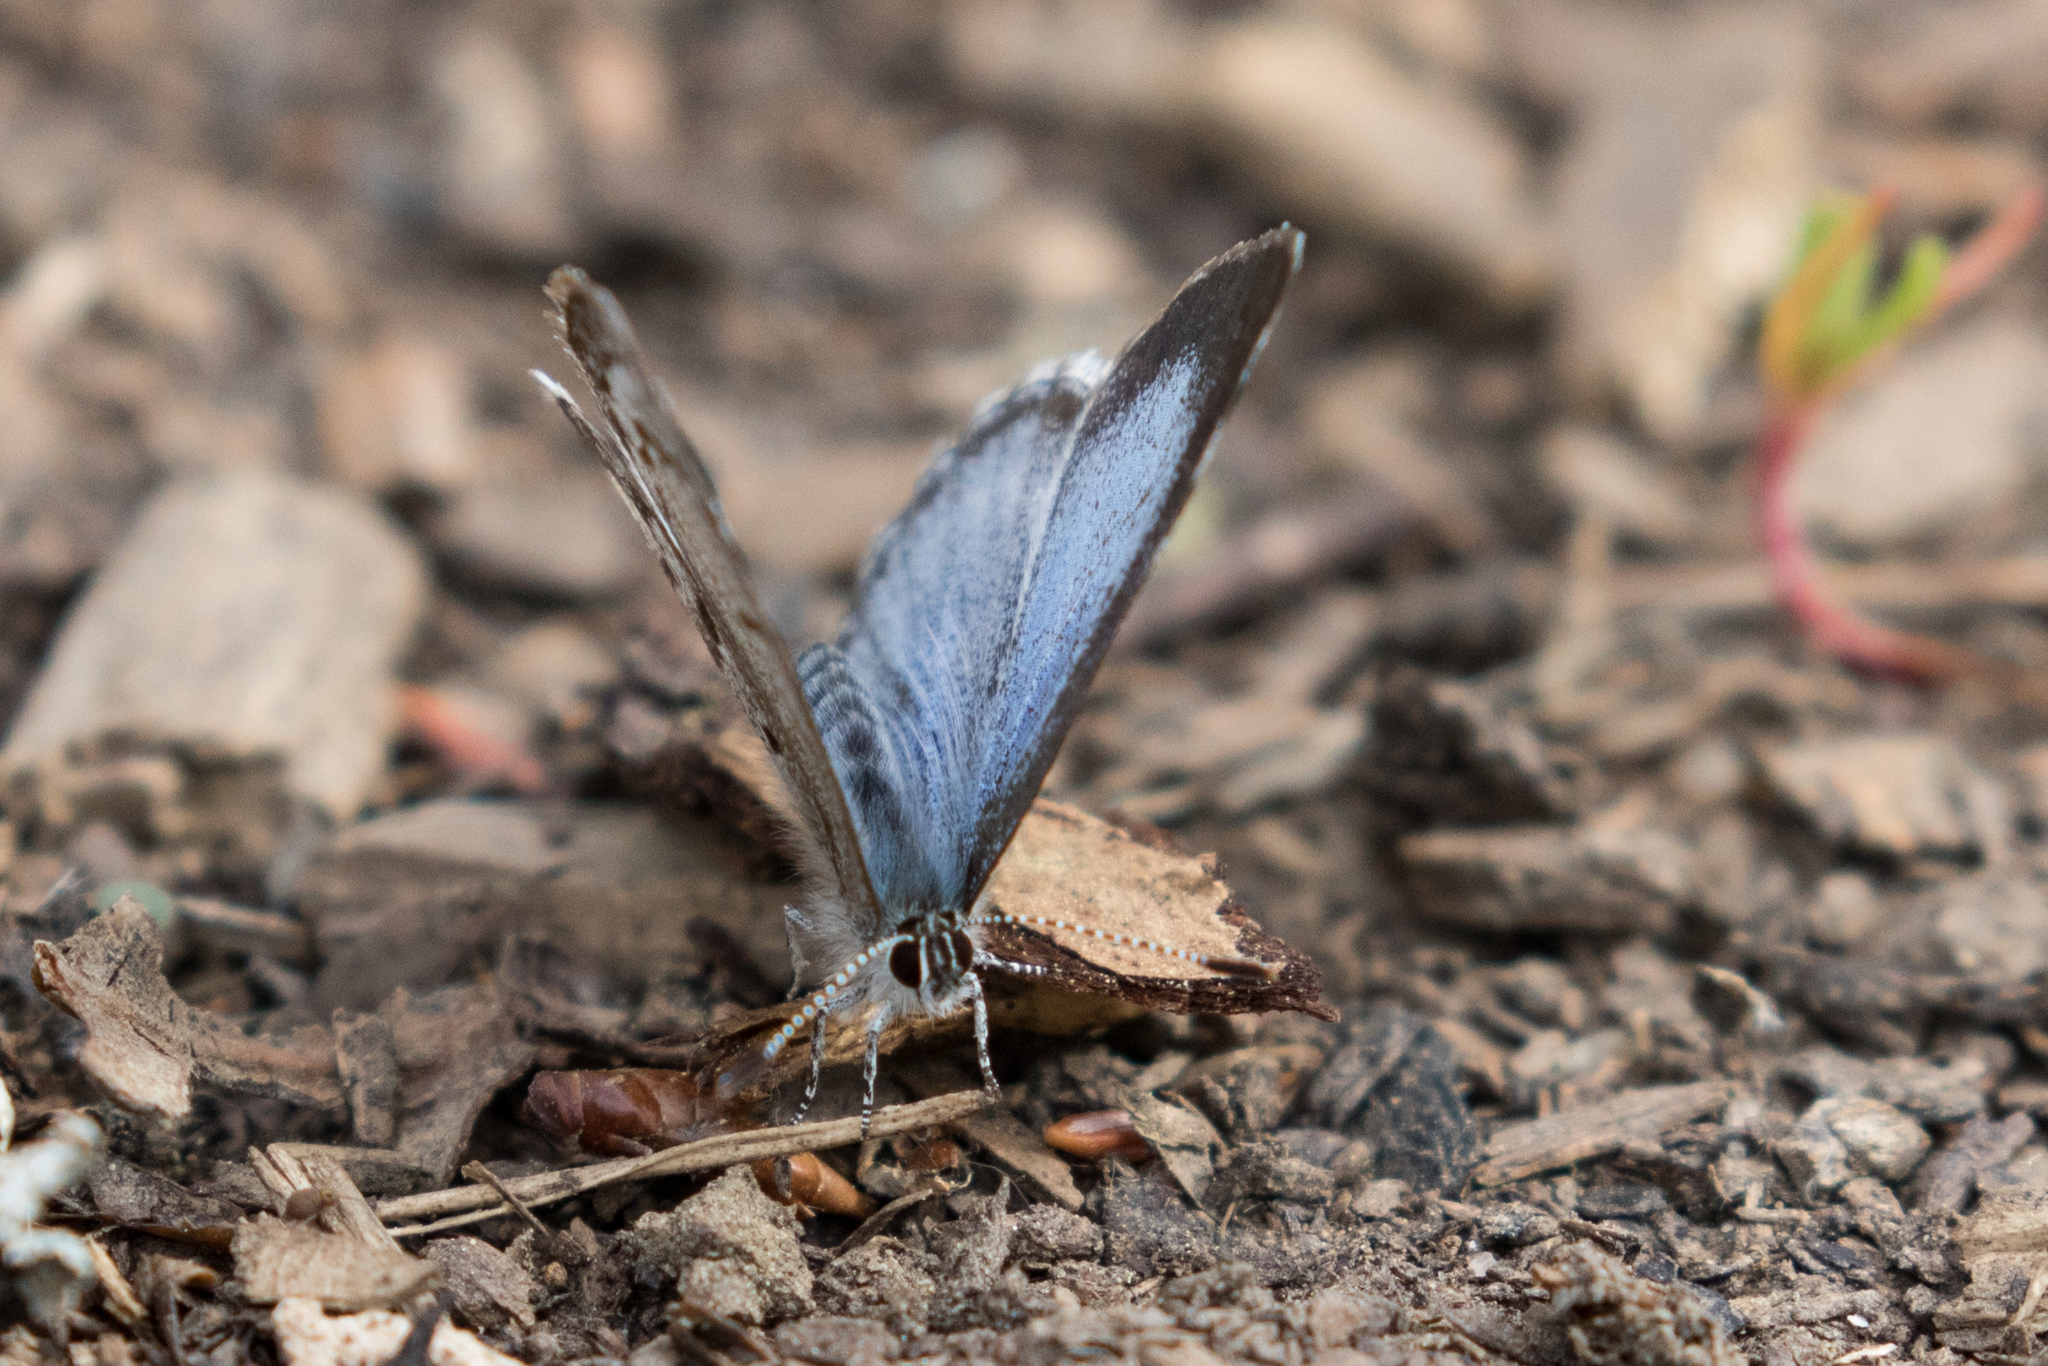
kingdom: Animalia
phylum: Arthropoda
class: Insecta
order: Lepidoptera
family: Lycaenidae
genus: Celastrina
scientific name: Celastrina lucia
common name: Lucia azure
